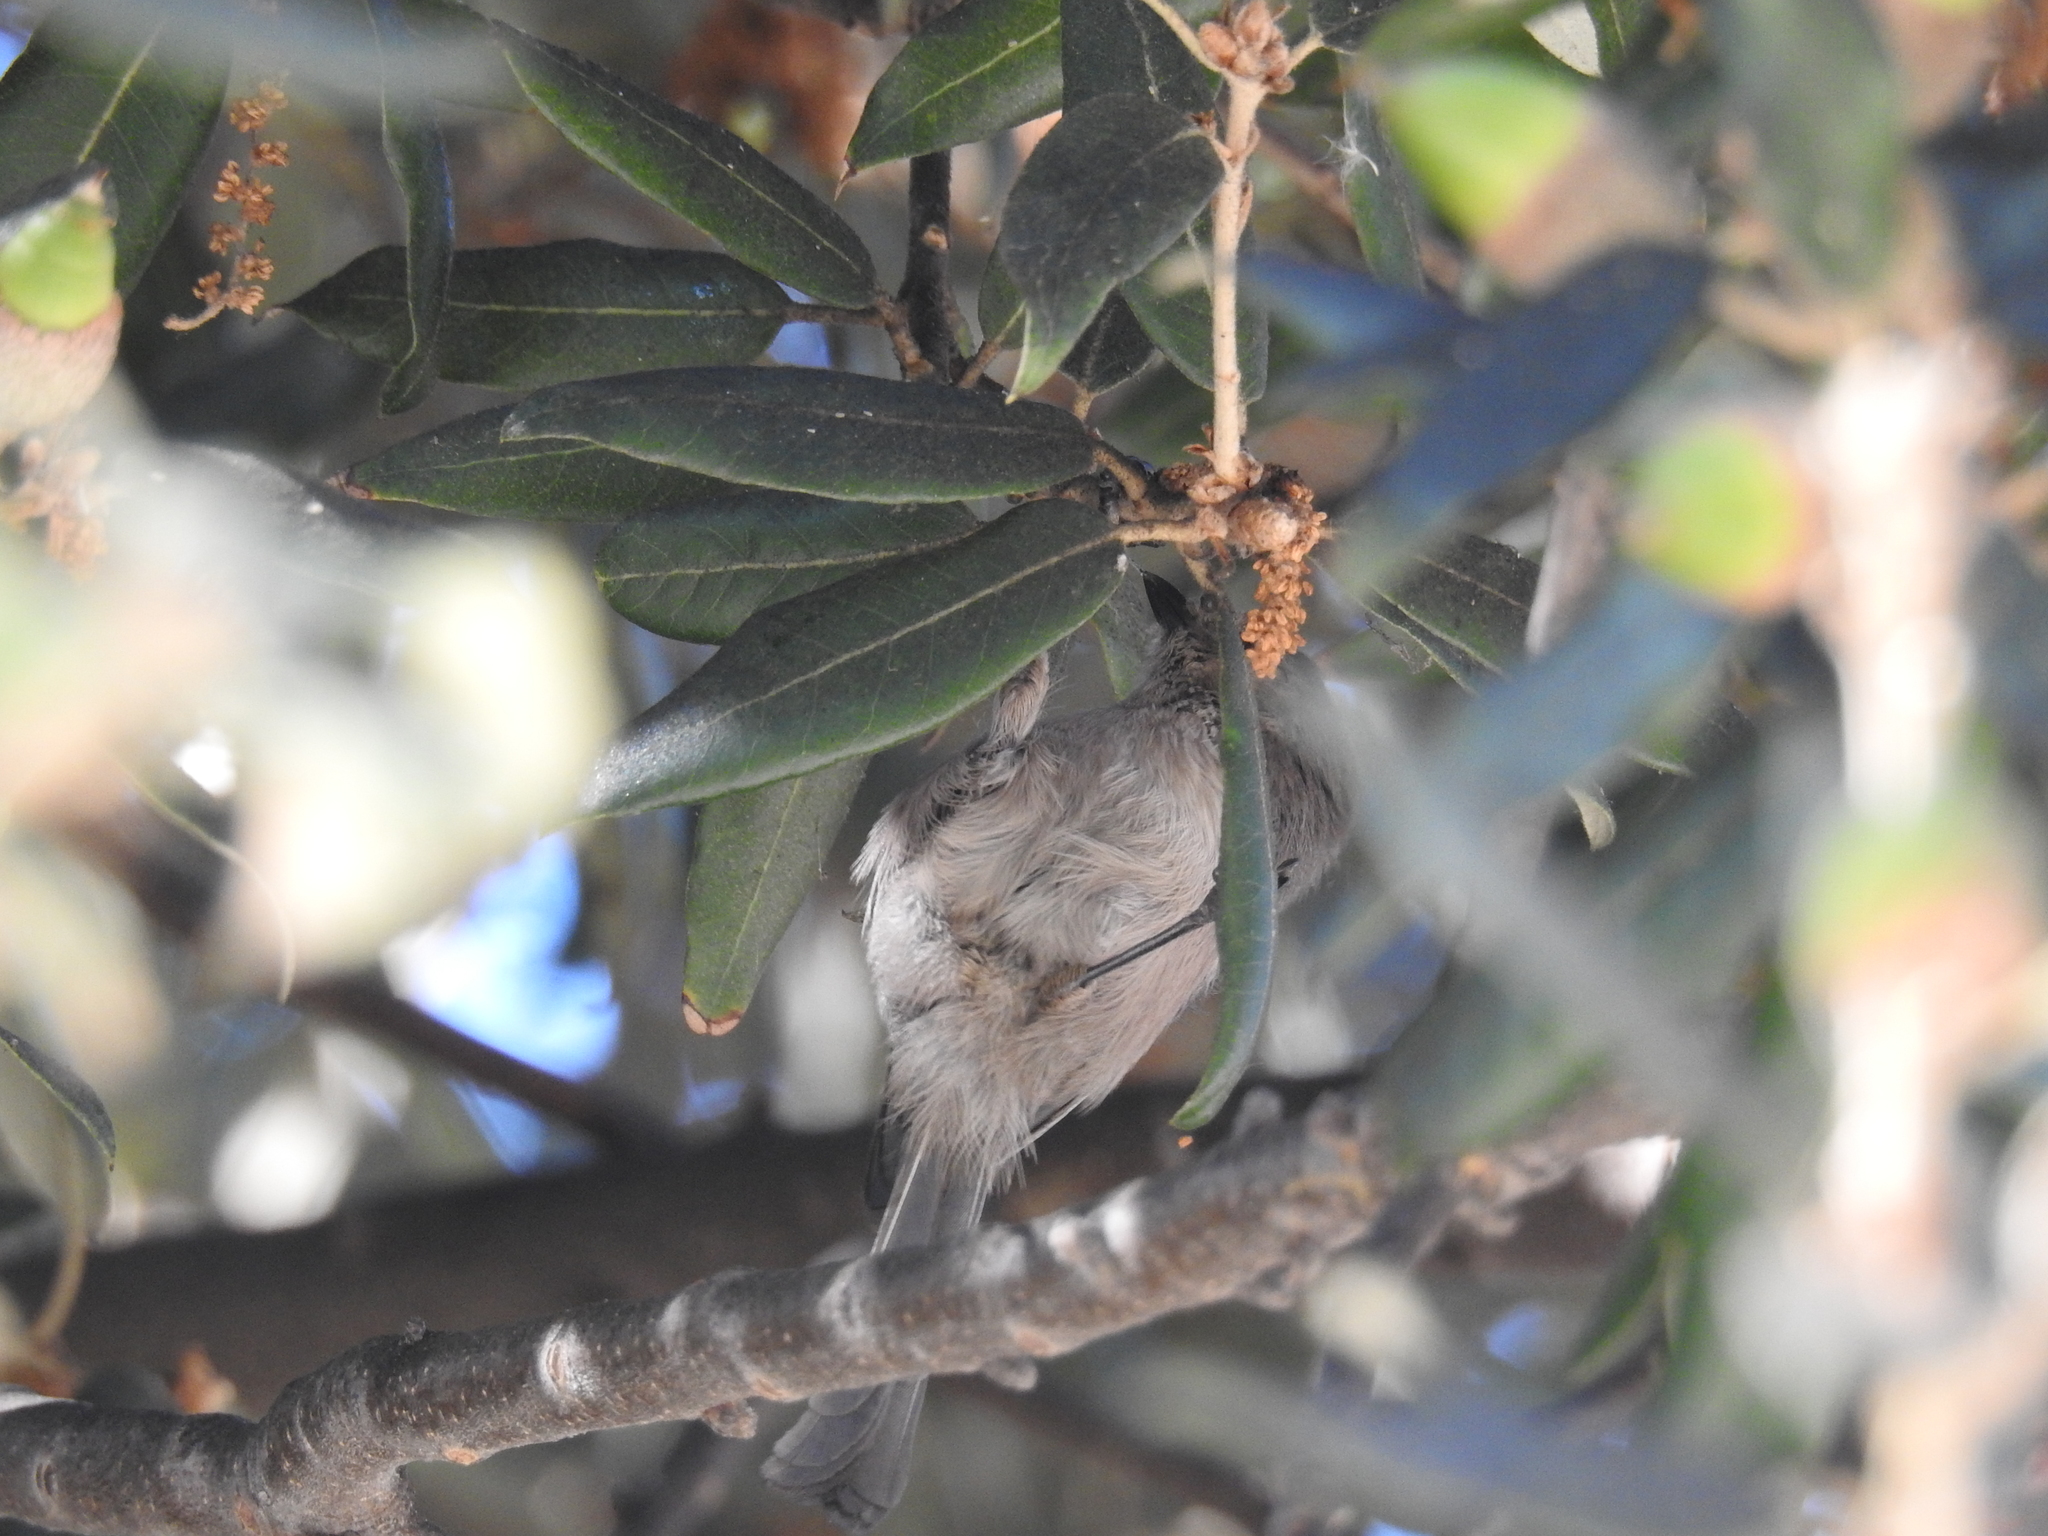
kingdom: Animalia
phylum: Chordata
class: Aves
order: Passeriformes
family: Aegithalidae
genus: Psaltriparus
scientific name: Psaltriparus minimus
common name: American bushtit
